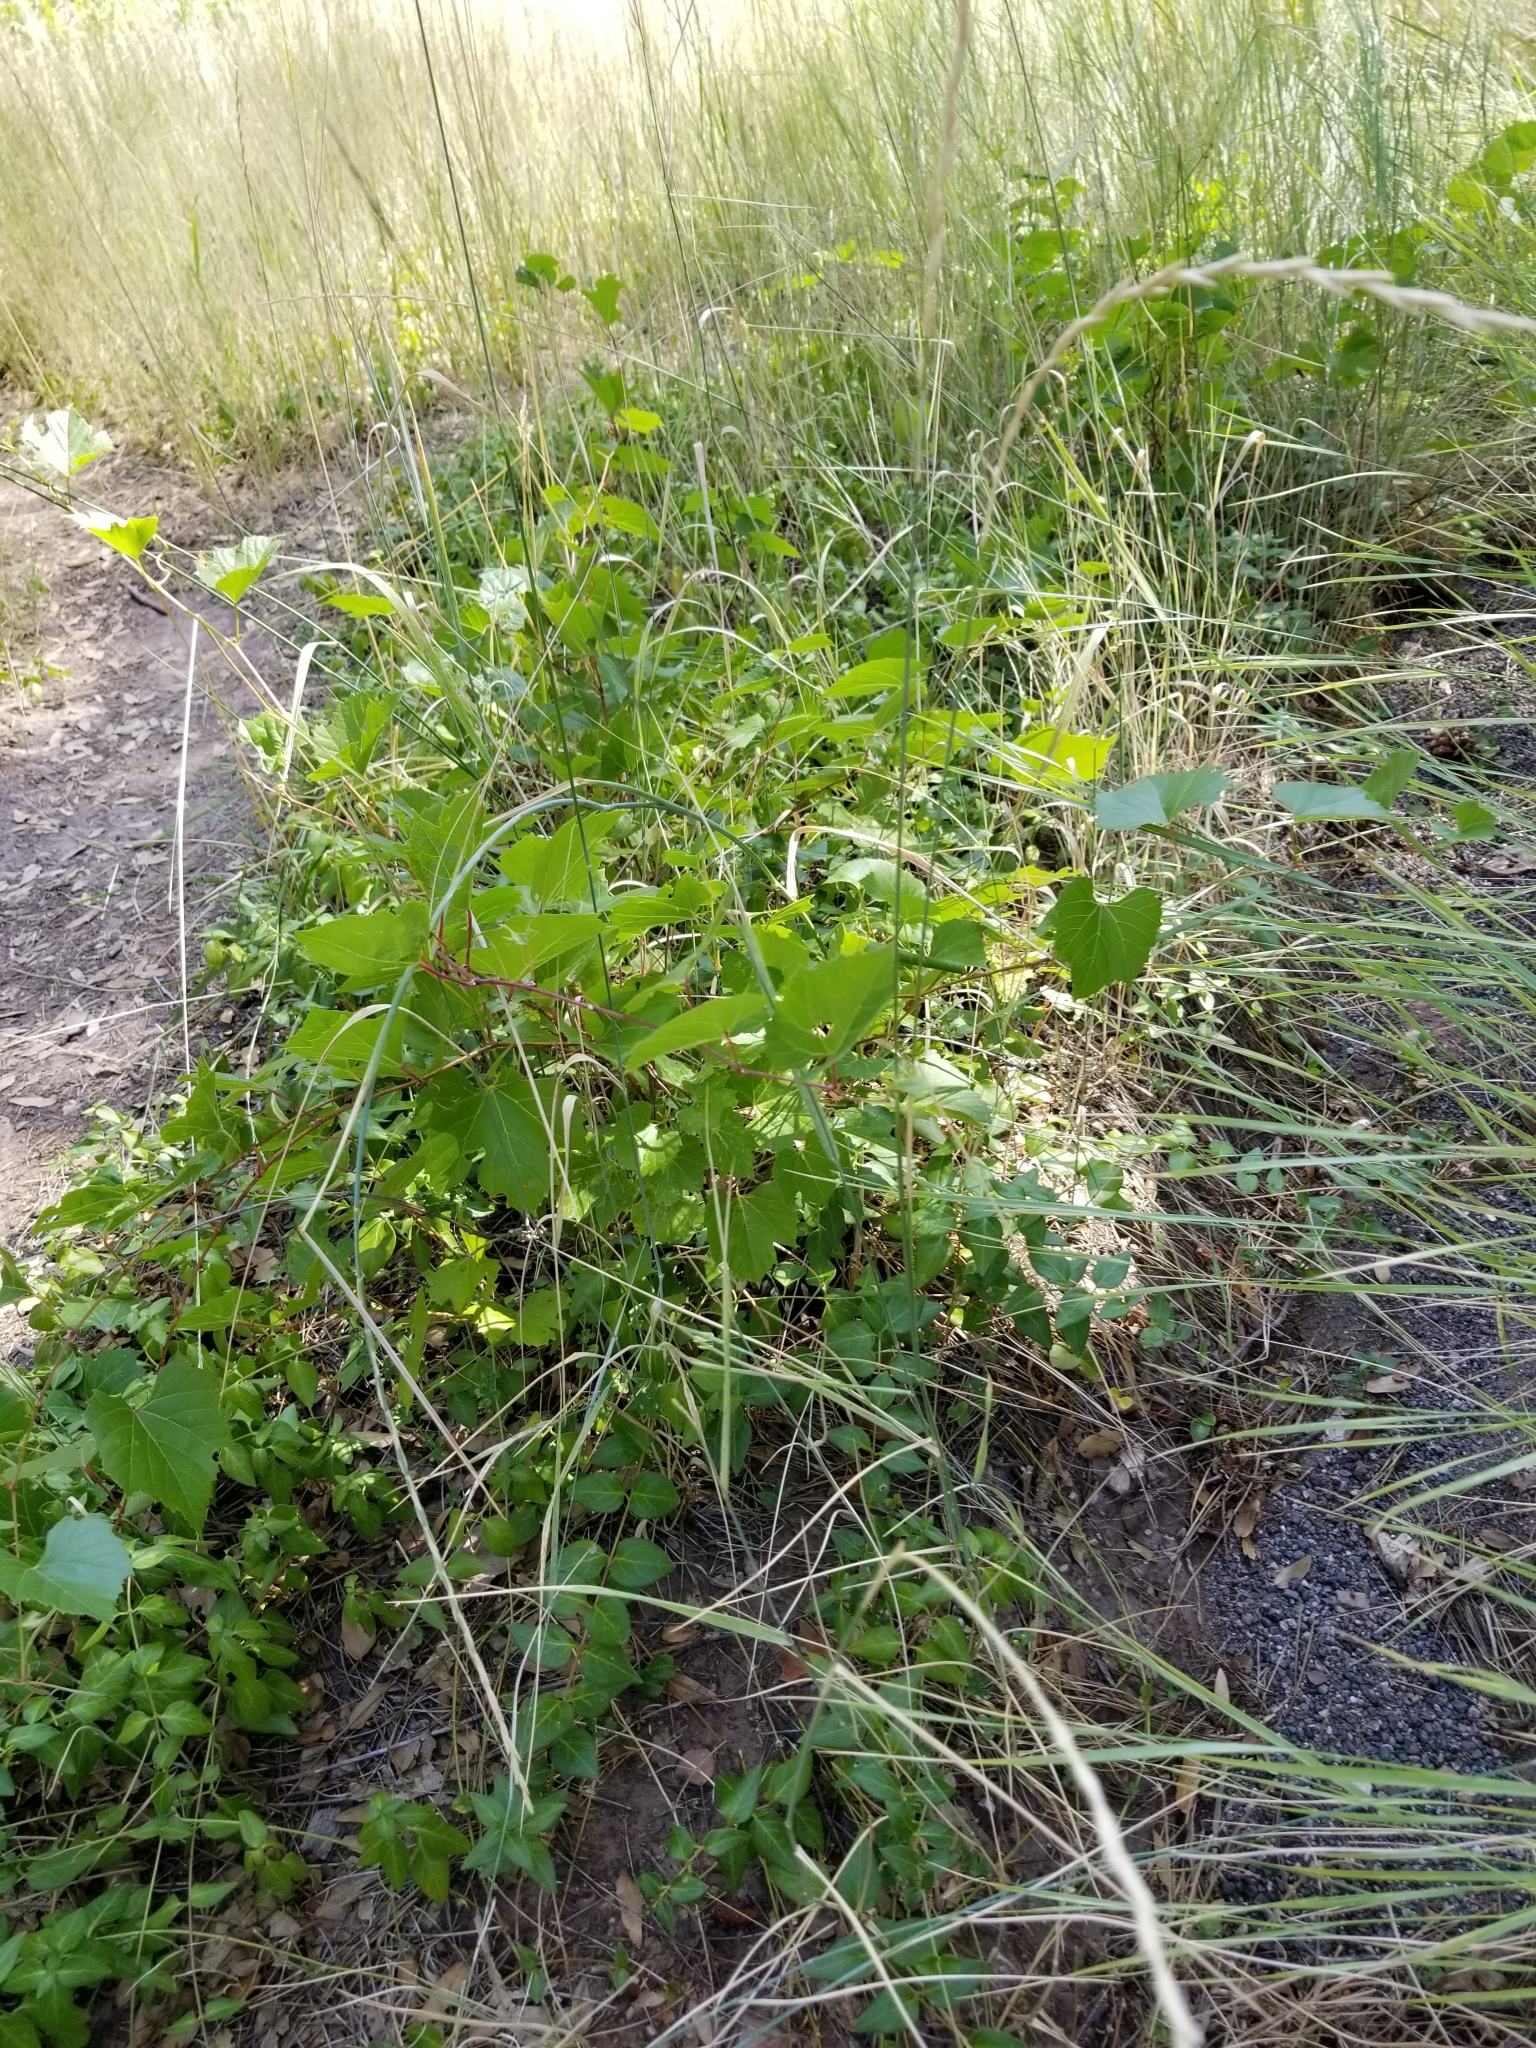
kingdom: Plantae
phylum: Tracheophyta
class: Magnoliopsida
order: Vitales
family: Vitaceae
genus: Vitis
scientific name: Vitis arizonica
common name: Canyon grape
